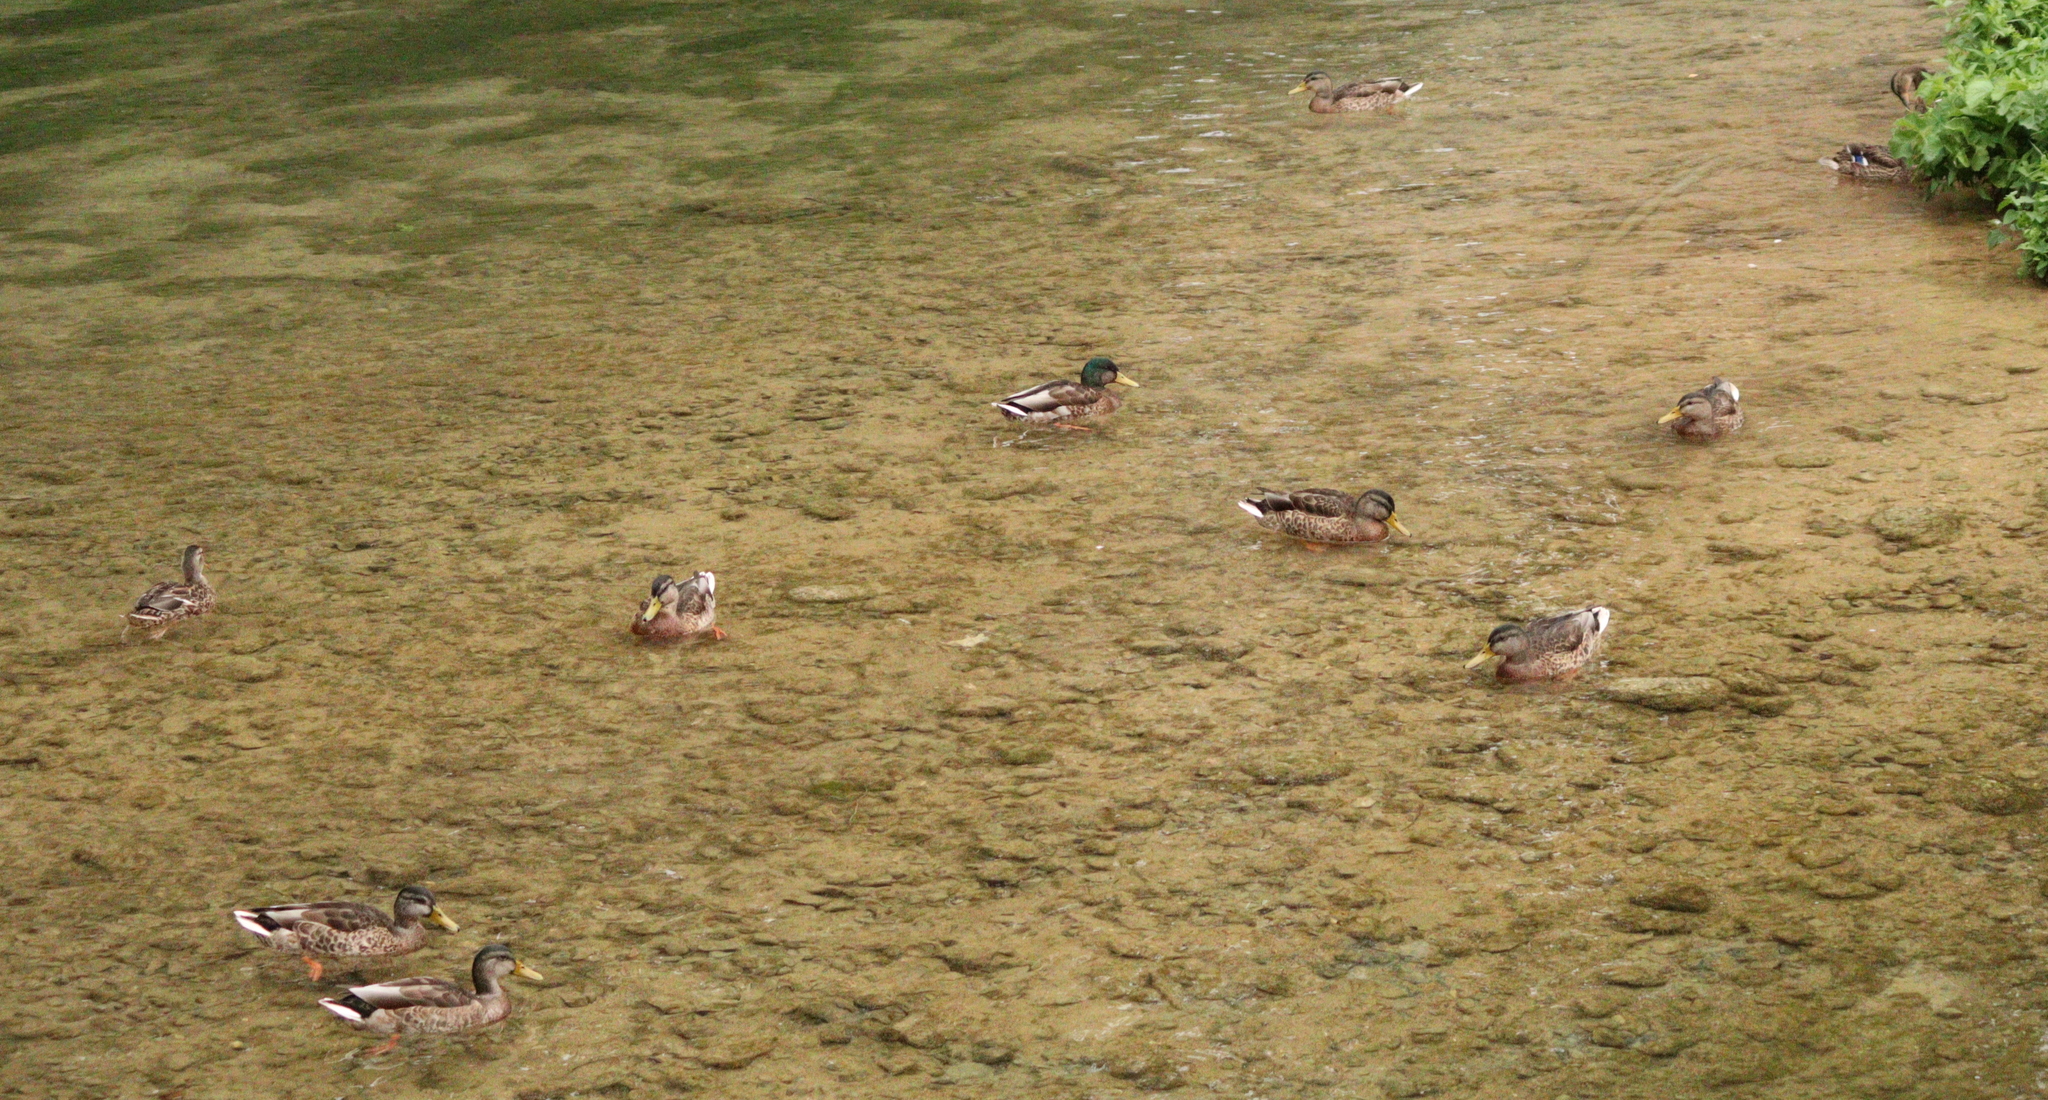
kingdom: Animalia
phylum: Chordata
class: Aves
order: Anseriformes
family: Anatidae
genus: Anas
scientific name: Anas platyrhynchos
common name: Mallard
